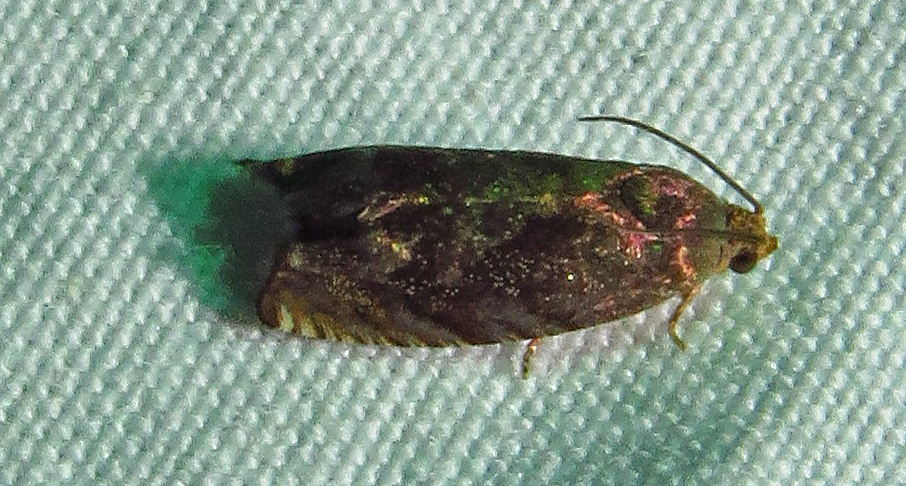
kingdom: Animalia
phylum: Arthropoda
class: Insecta
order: Lepidoptera
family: Tortricidae
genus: Cydia
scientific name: Cydia caryana
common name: Hickory shuckworm moth
